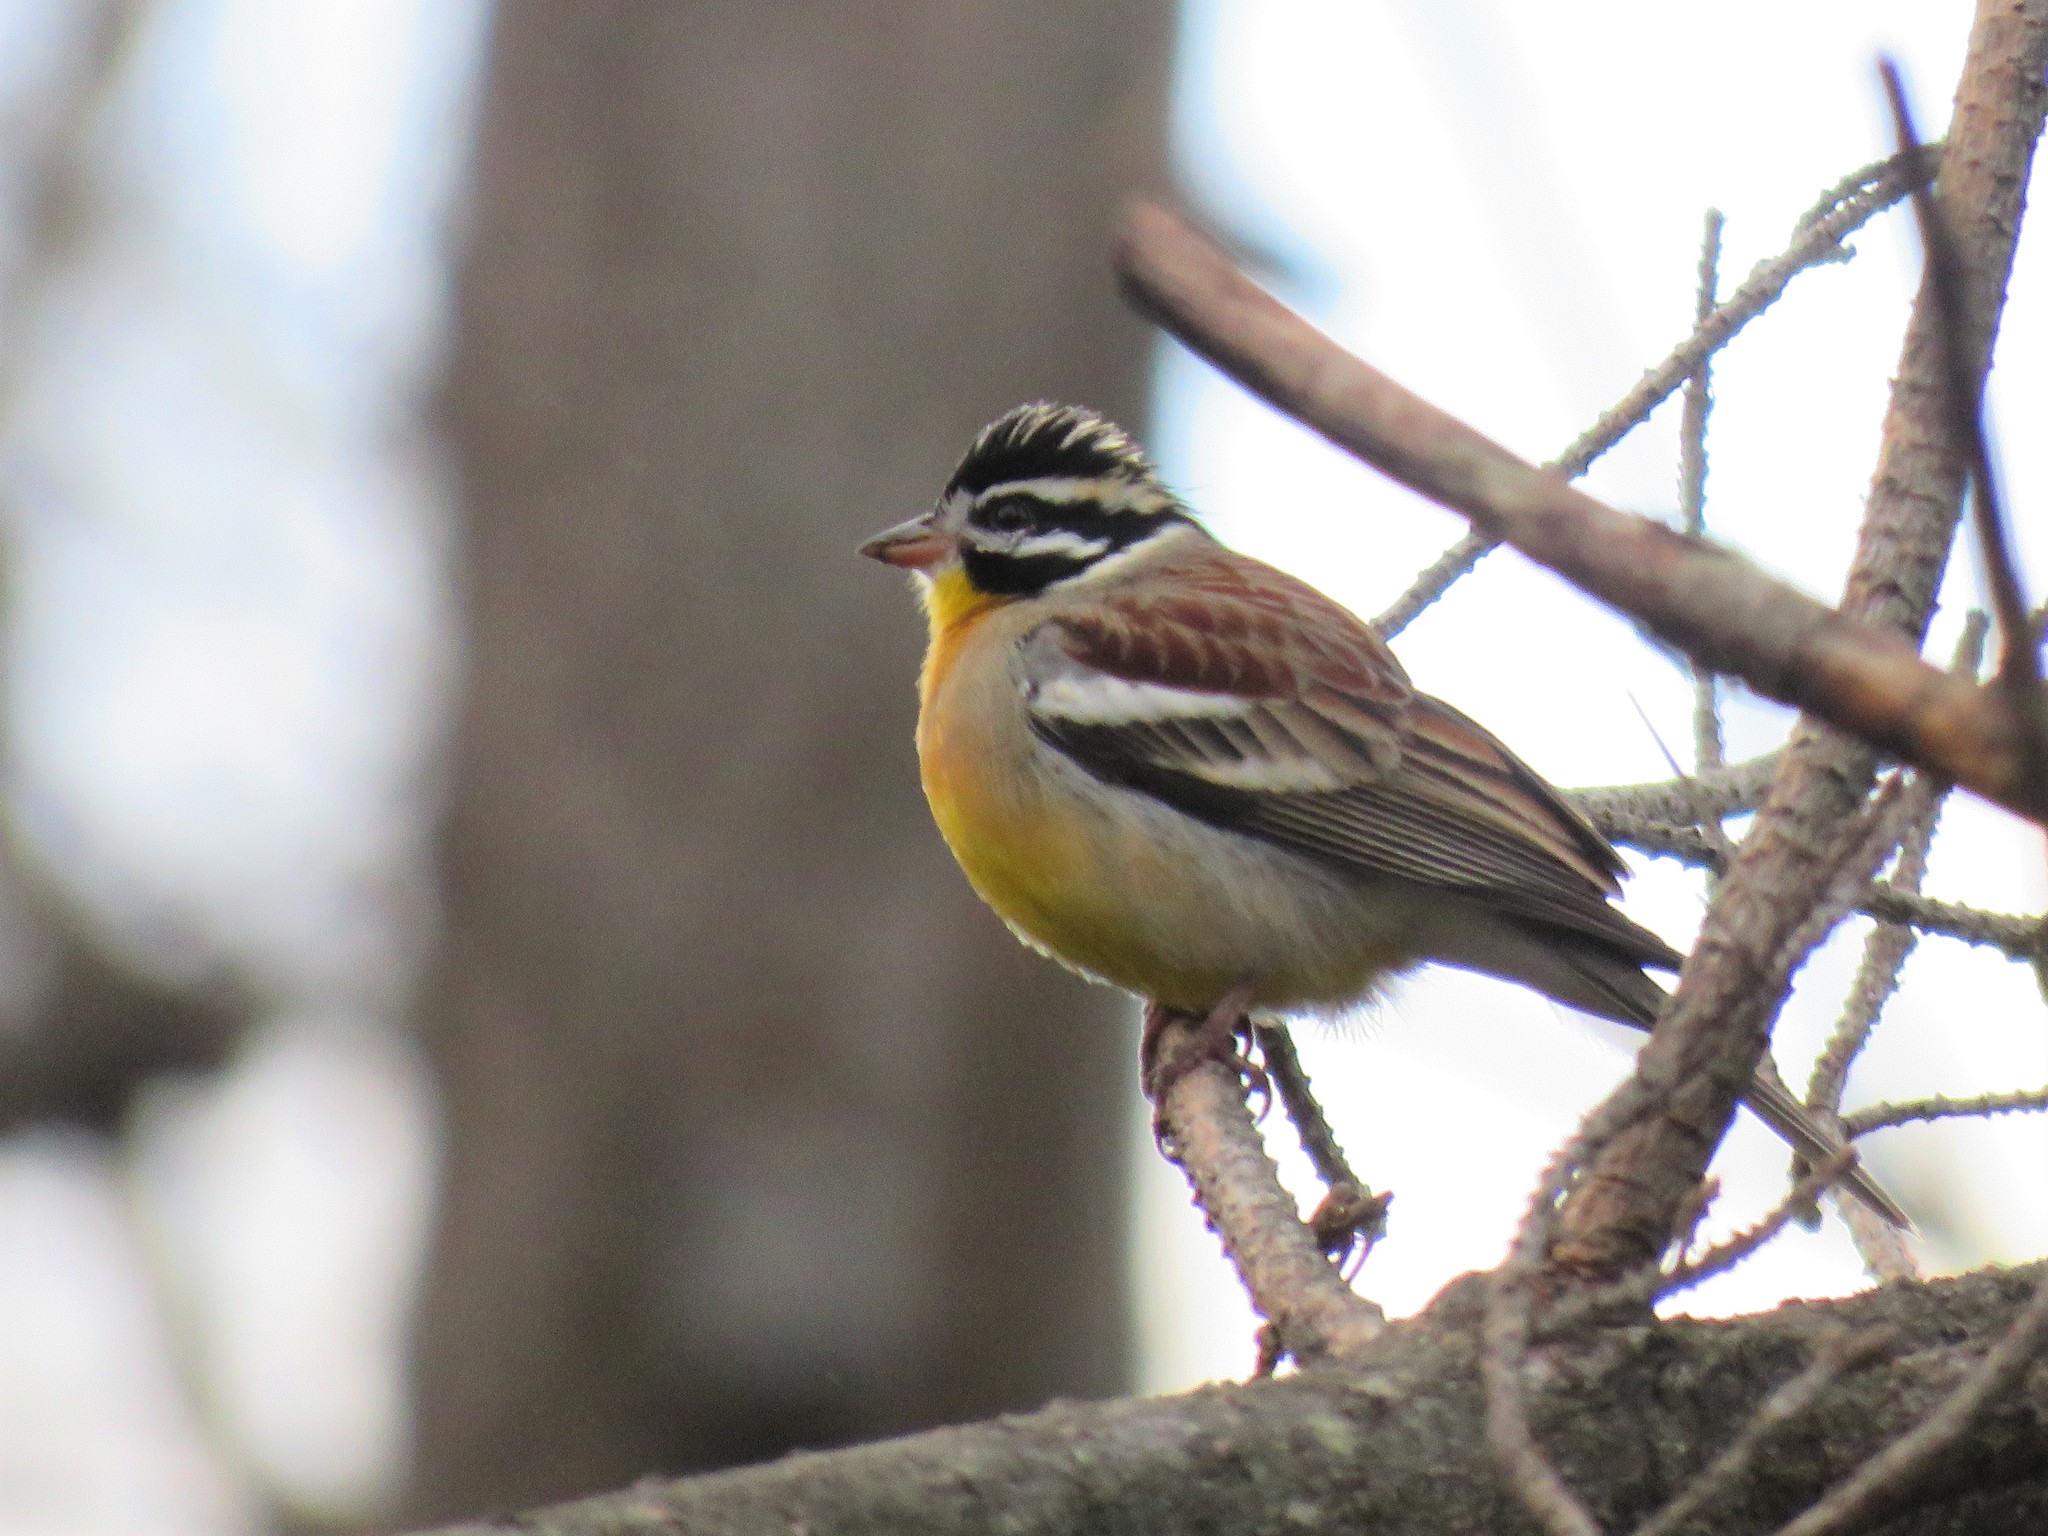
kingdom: Animalia
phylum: Chordata
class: Aves
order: Passeriformes
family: Emberizidae
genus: Emberiza
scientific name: Emberiza flaviventris
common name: Golden-breasted bunting
